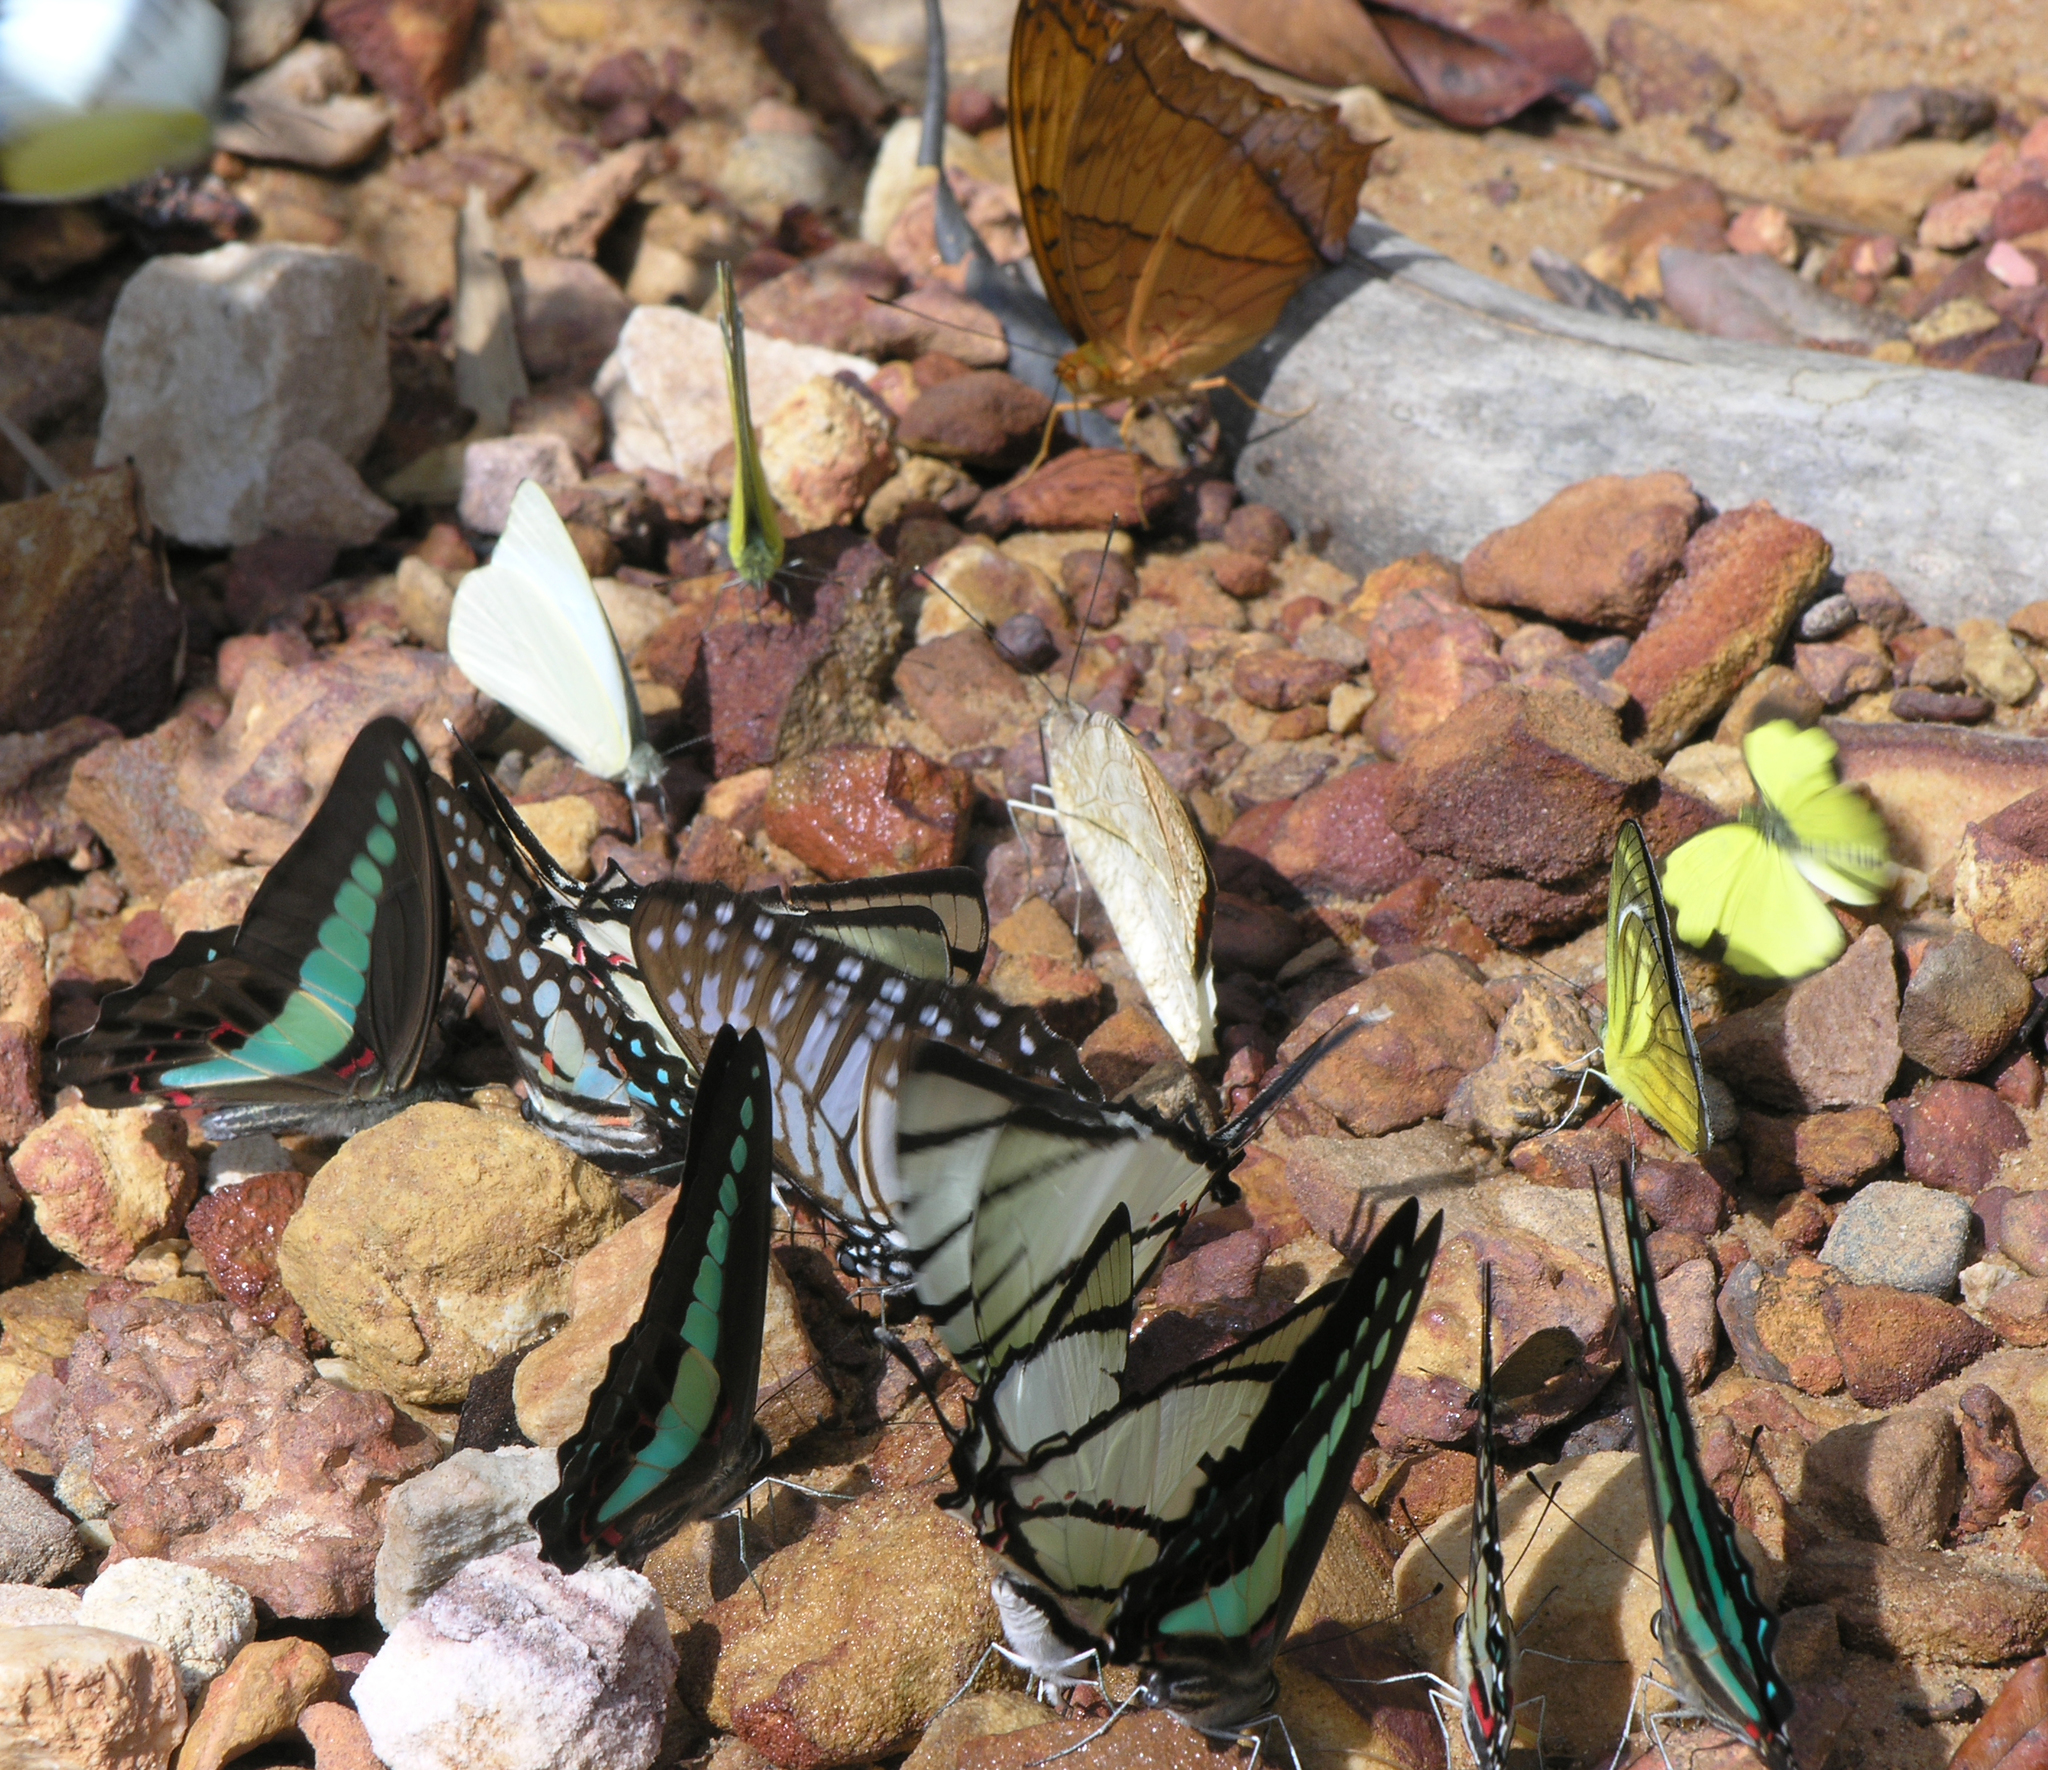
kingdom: Animalia
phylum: Arthropoda
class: Insecta
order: Lepidoptera
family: Papilionidae
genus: Graphium
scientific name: Graphium agetes
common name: Fourbar swordtail
